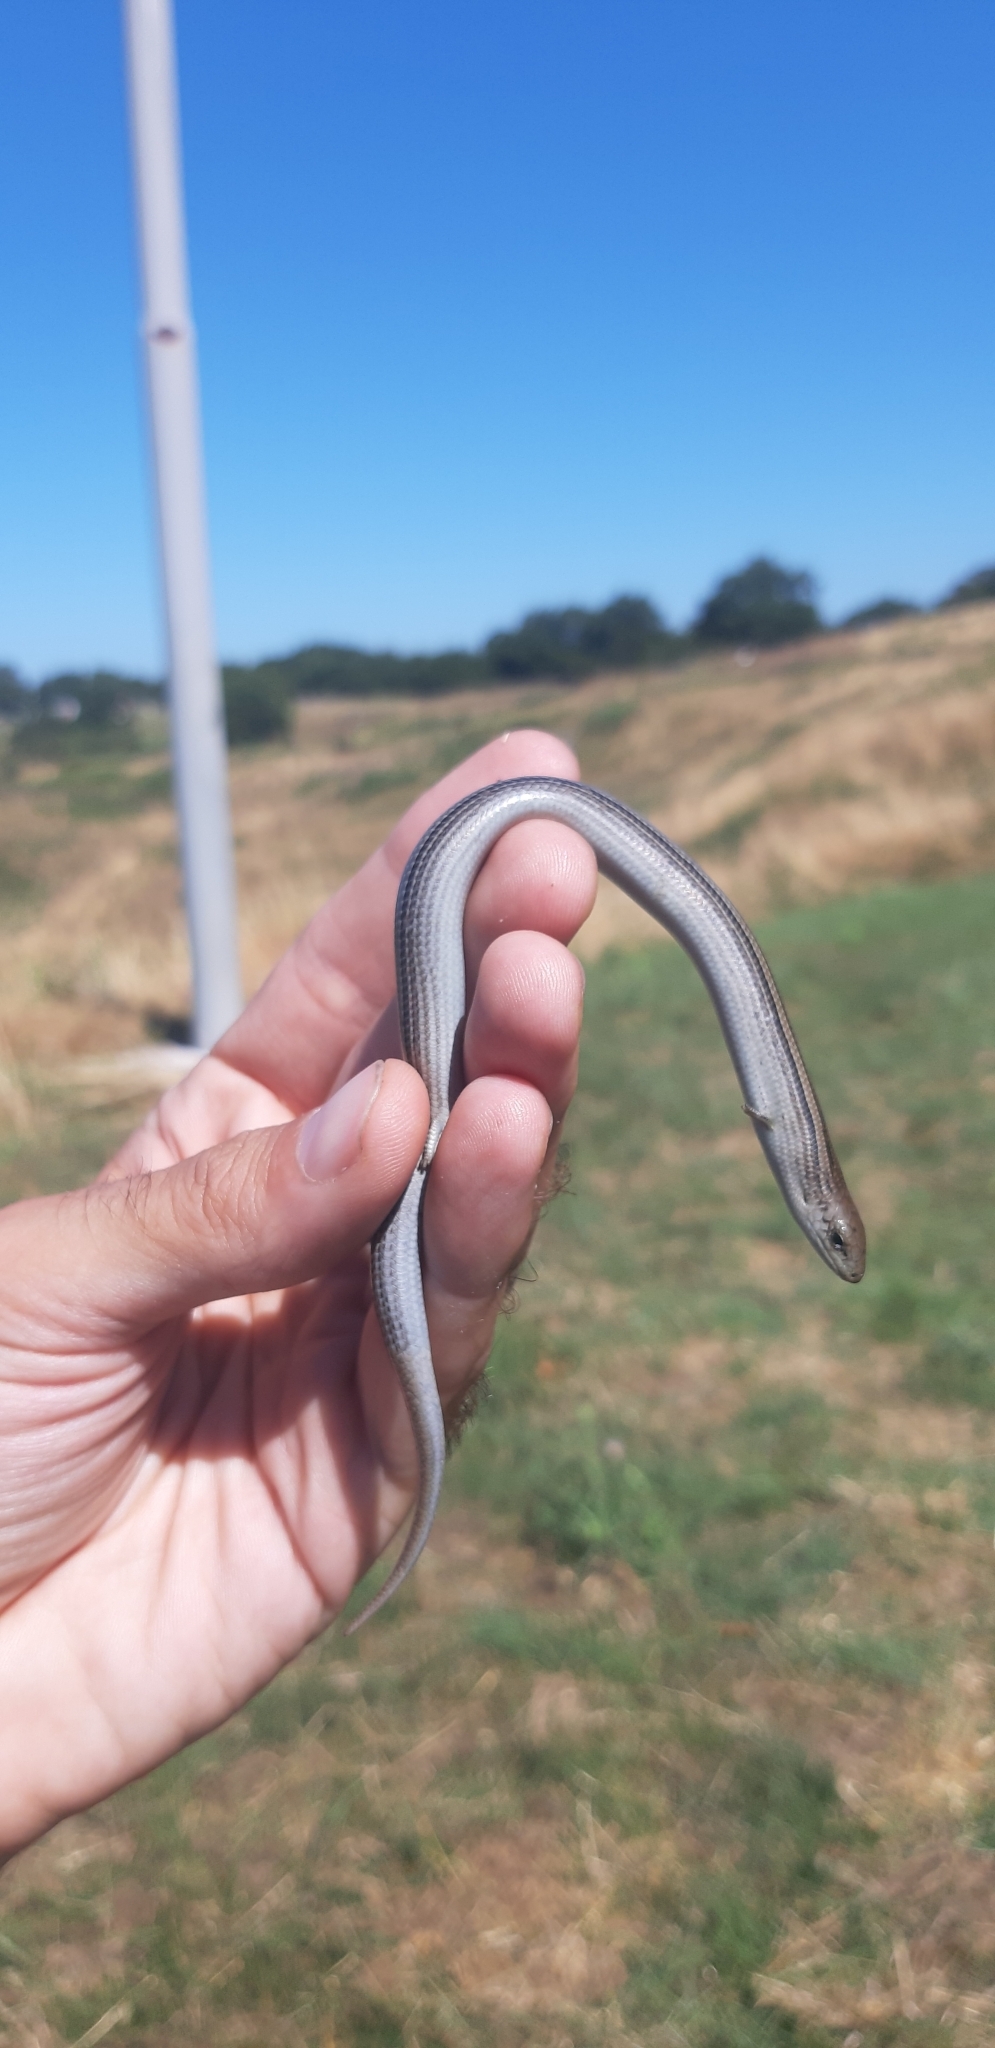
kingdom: Animalia
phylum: Chordata
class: Squamata
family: Scincidae
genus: Chalcides
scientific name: Chalcides chalcides
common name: Italian three-toed skink
